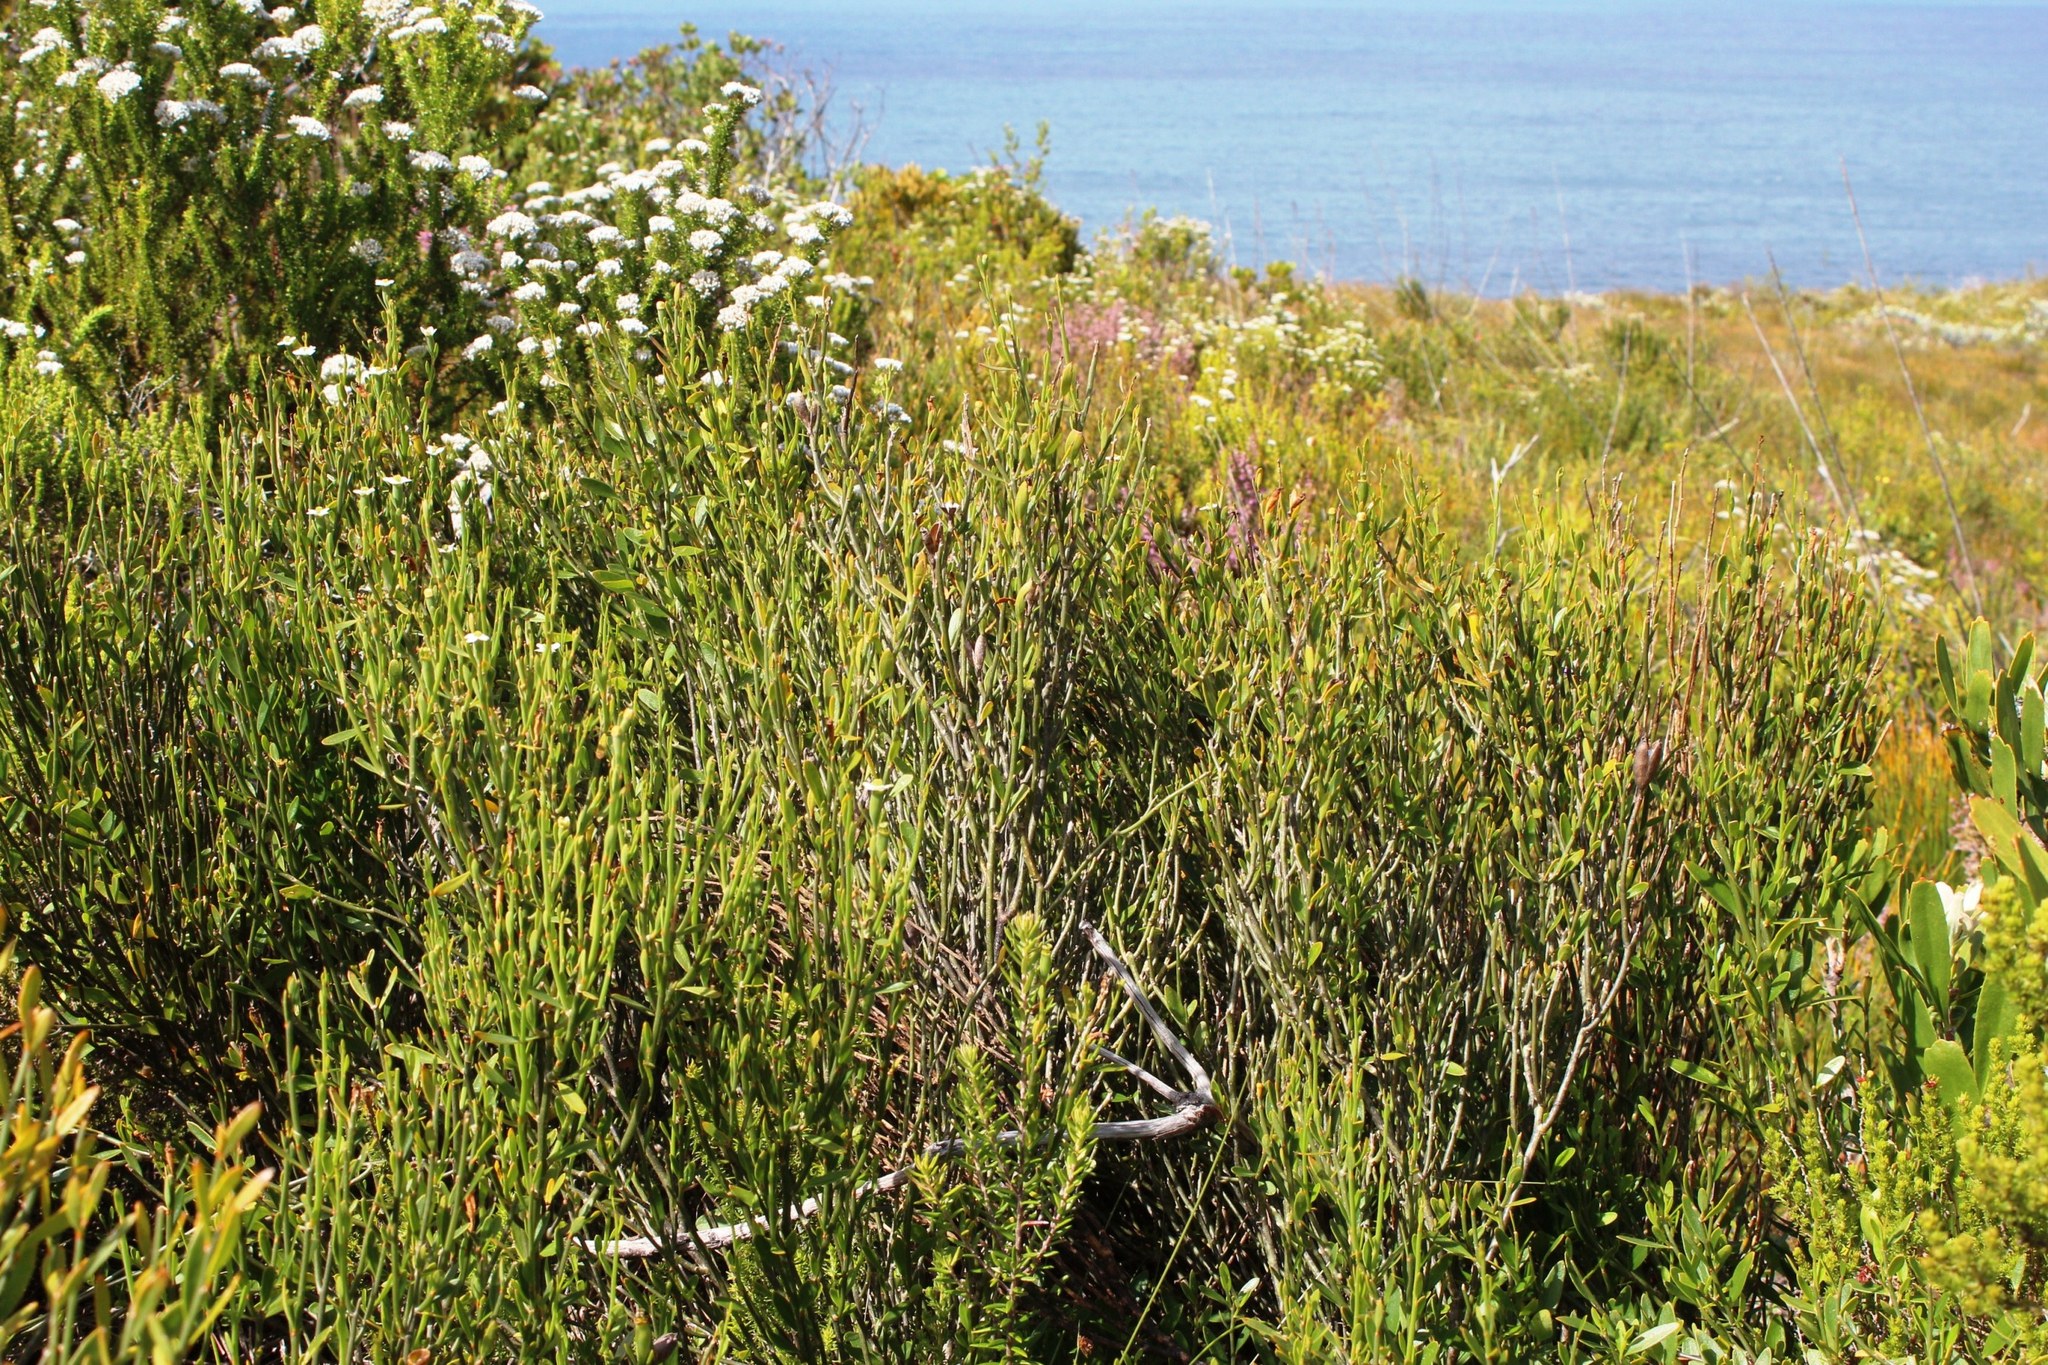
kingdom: Plantae
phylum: Tracheophyta
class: Magnoliopsida
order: Solanales
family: Montiniaceae
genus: Montinia
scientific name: Montinia caryophyllacea
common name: Wild clove-bush
